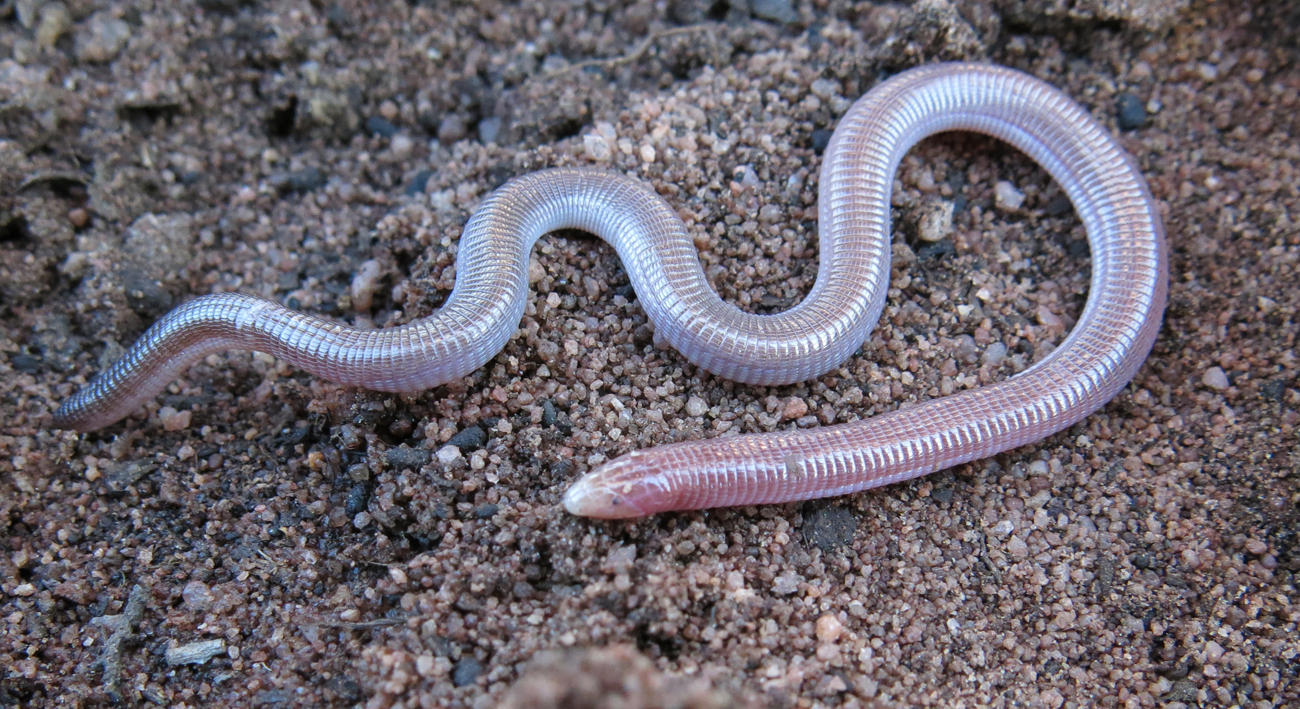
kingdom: Animalia
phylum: Chordata
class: Squamata
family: Amphisbaenidae
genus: Zygaspis
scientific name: Zygaspis quadrifrons
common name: Kalahari dwarf worm lizard
